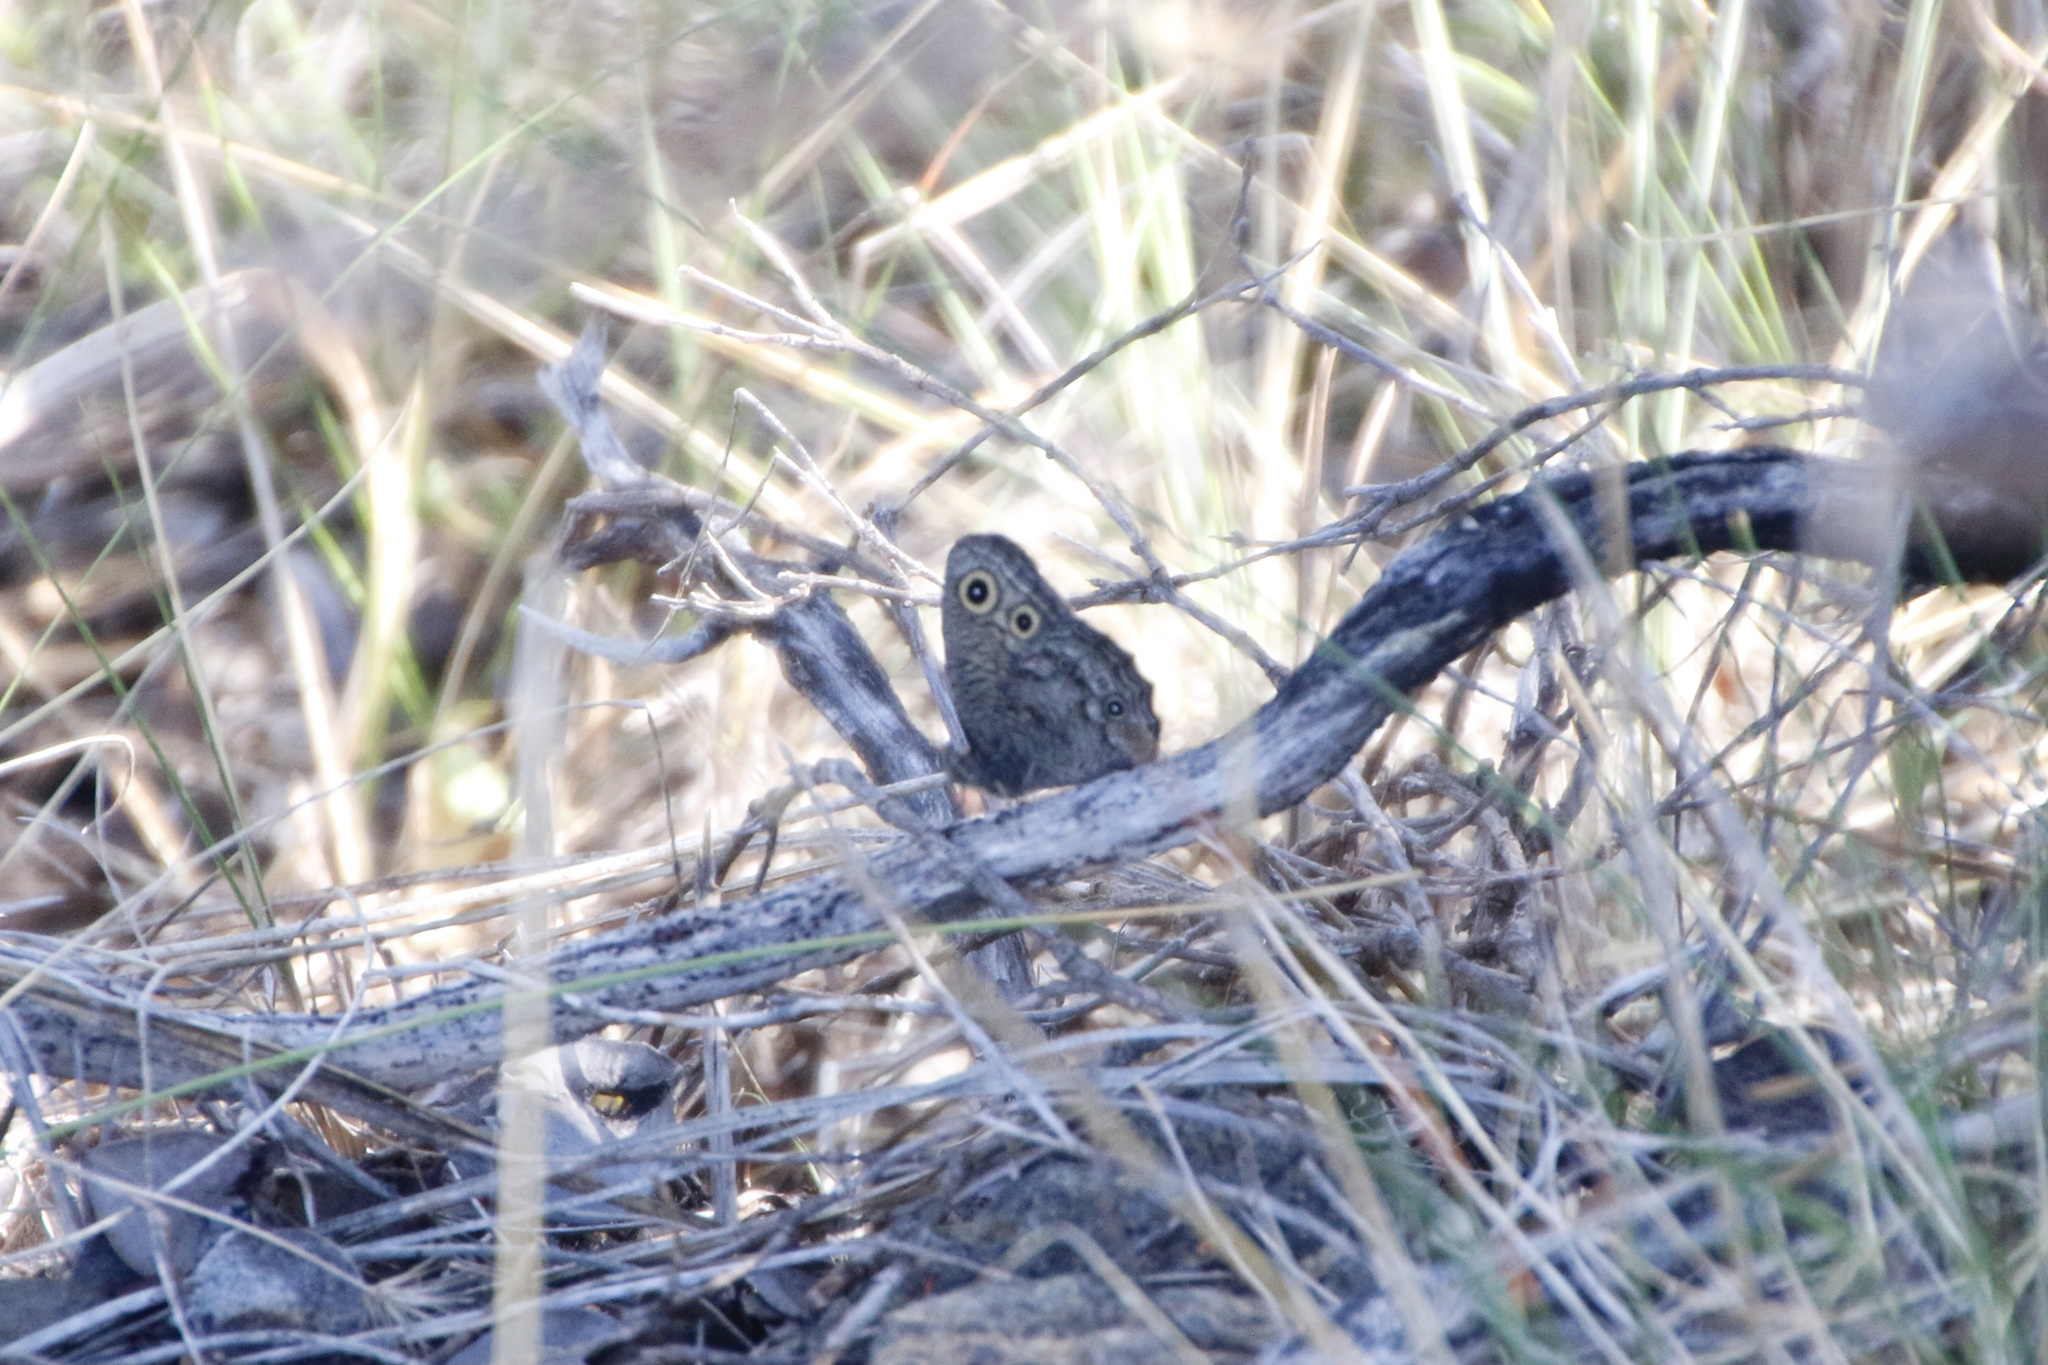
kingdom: Animalia
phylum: Arthropoda
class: Insecta
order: Lepidoptera
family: Nymphalidae
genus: Cercyonis
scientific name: Cercyonis sthenele
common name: Great basin wood-nymph
